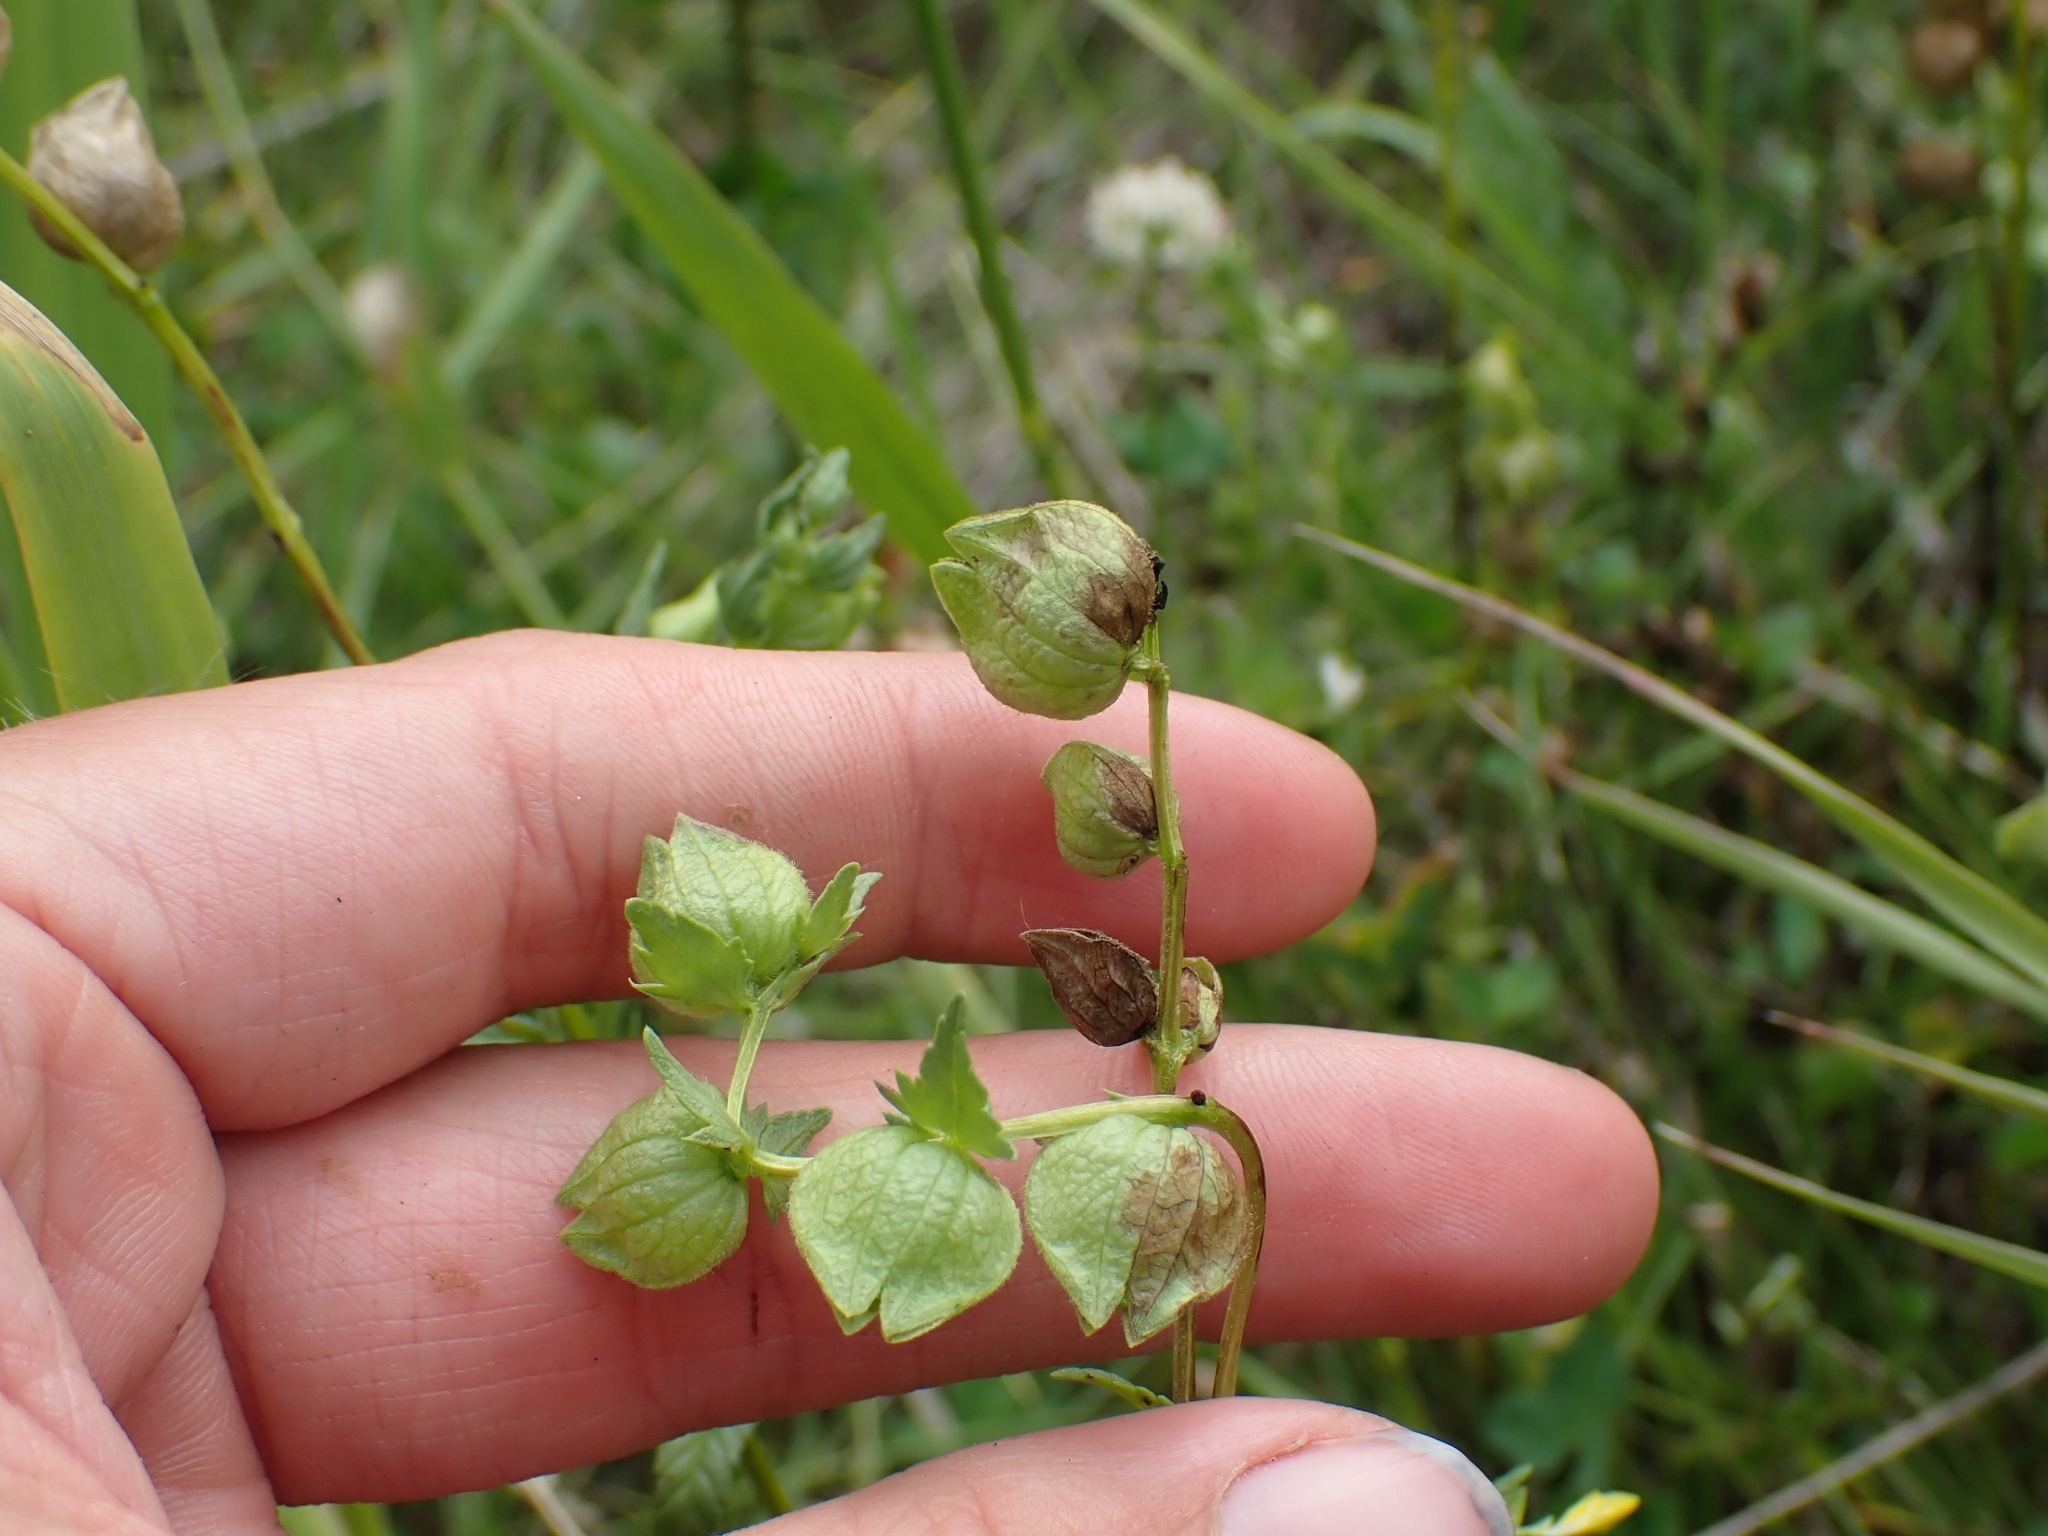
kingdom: Plantae
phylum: Tracheophyta
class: Magnoliopsida
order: Lamiales
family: Orobanchaceae
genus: Rhinanthus
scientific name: Rhinanthus minor
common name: Yellow-rattle
